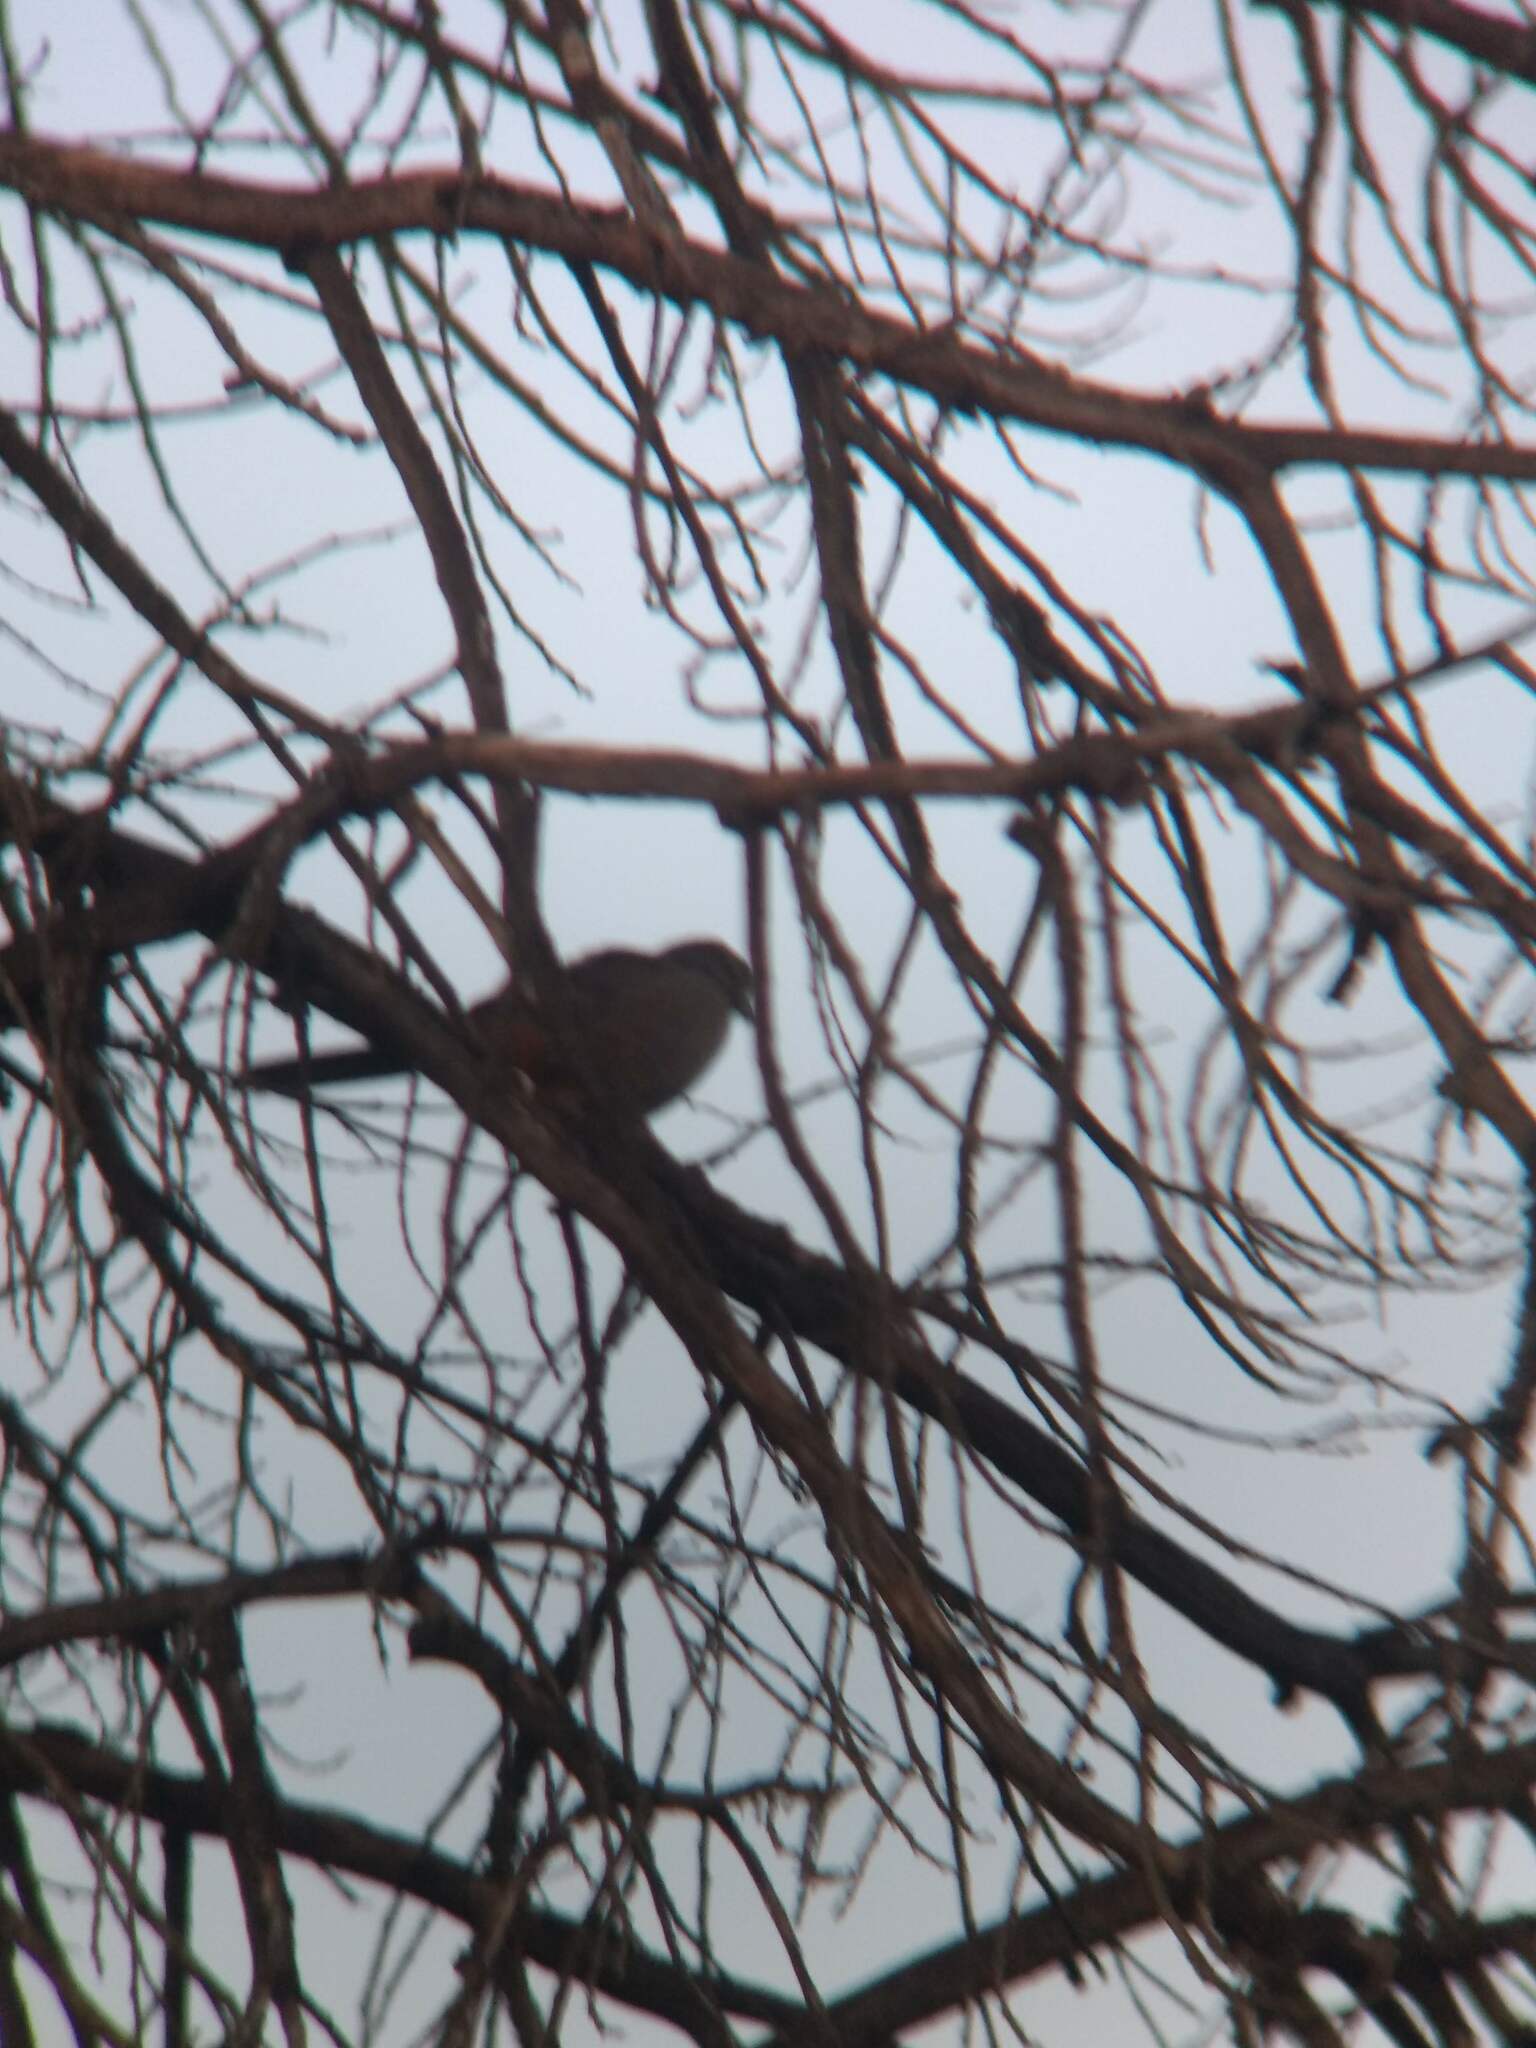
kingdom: Animalia
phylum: Chordata
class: Aves
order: Passeriformes
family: Passerellidae
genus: Melozone
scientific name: Melozone crissalis
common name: California towhee
